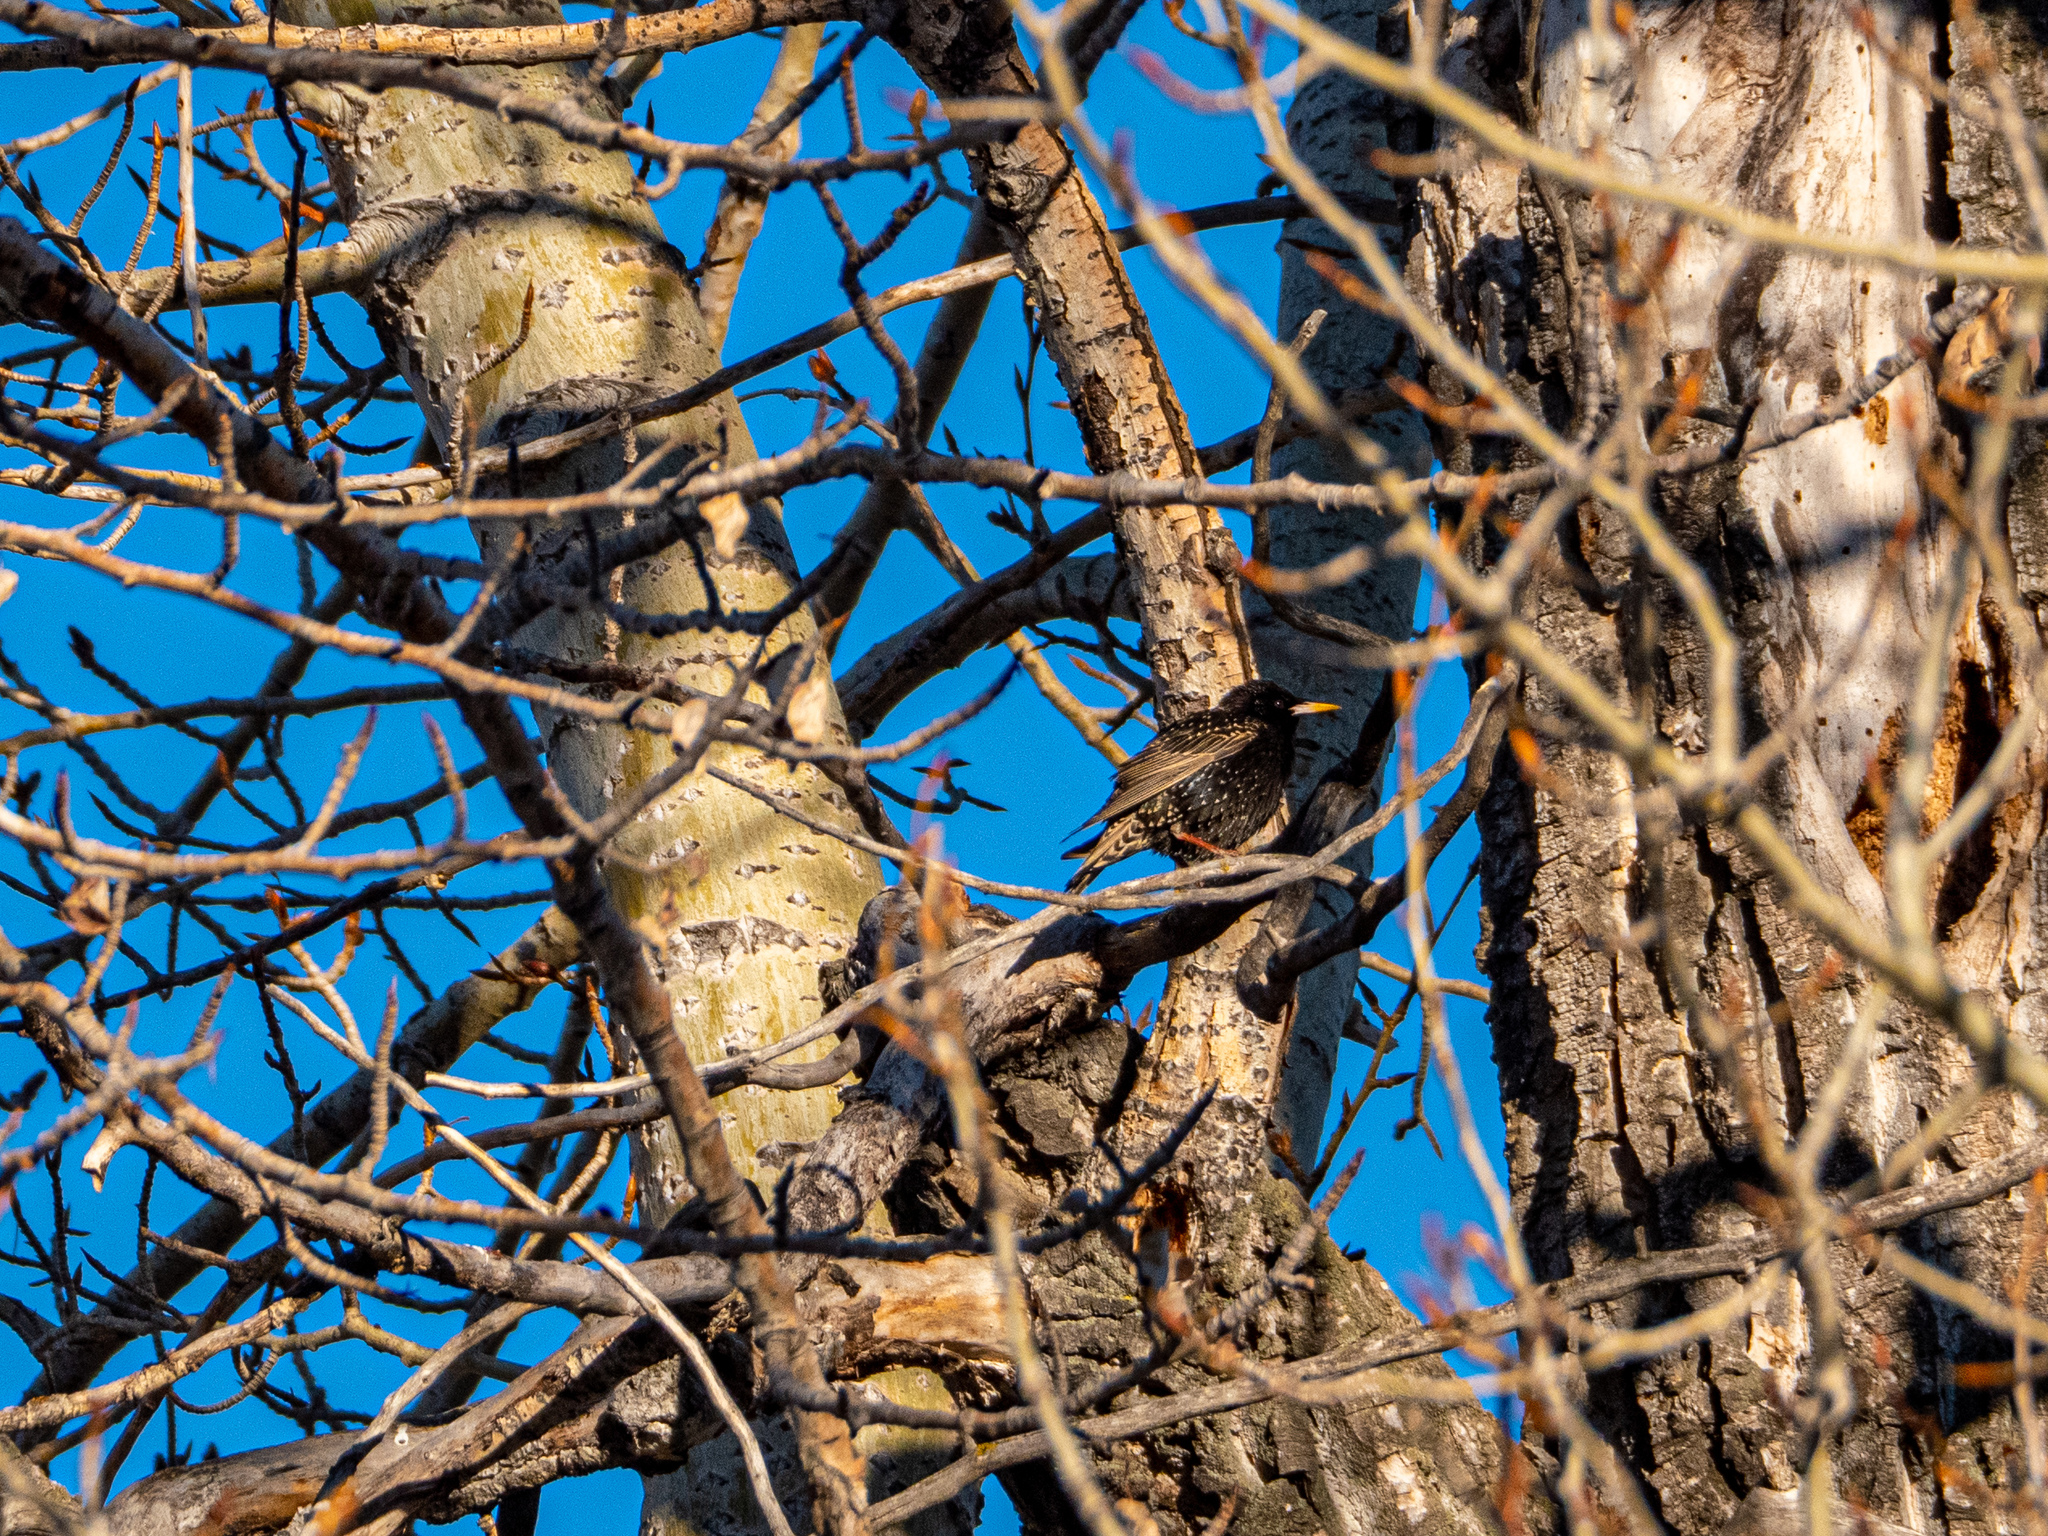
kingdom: Animalia
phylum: Chordata
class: Aves
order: Passeriformes
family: Sturnidae
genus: Sturnus
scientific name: Sturnus vulgaris
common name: Common starling
